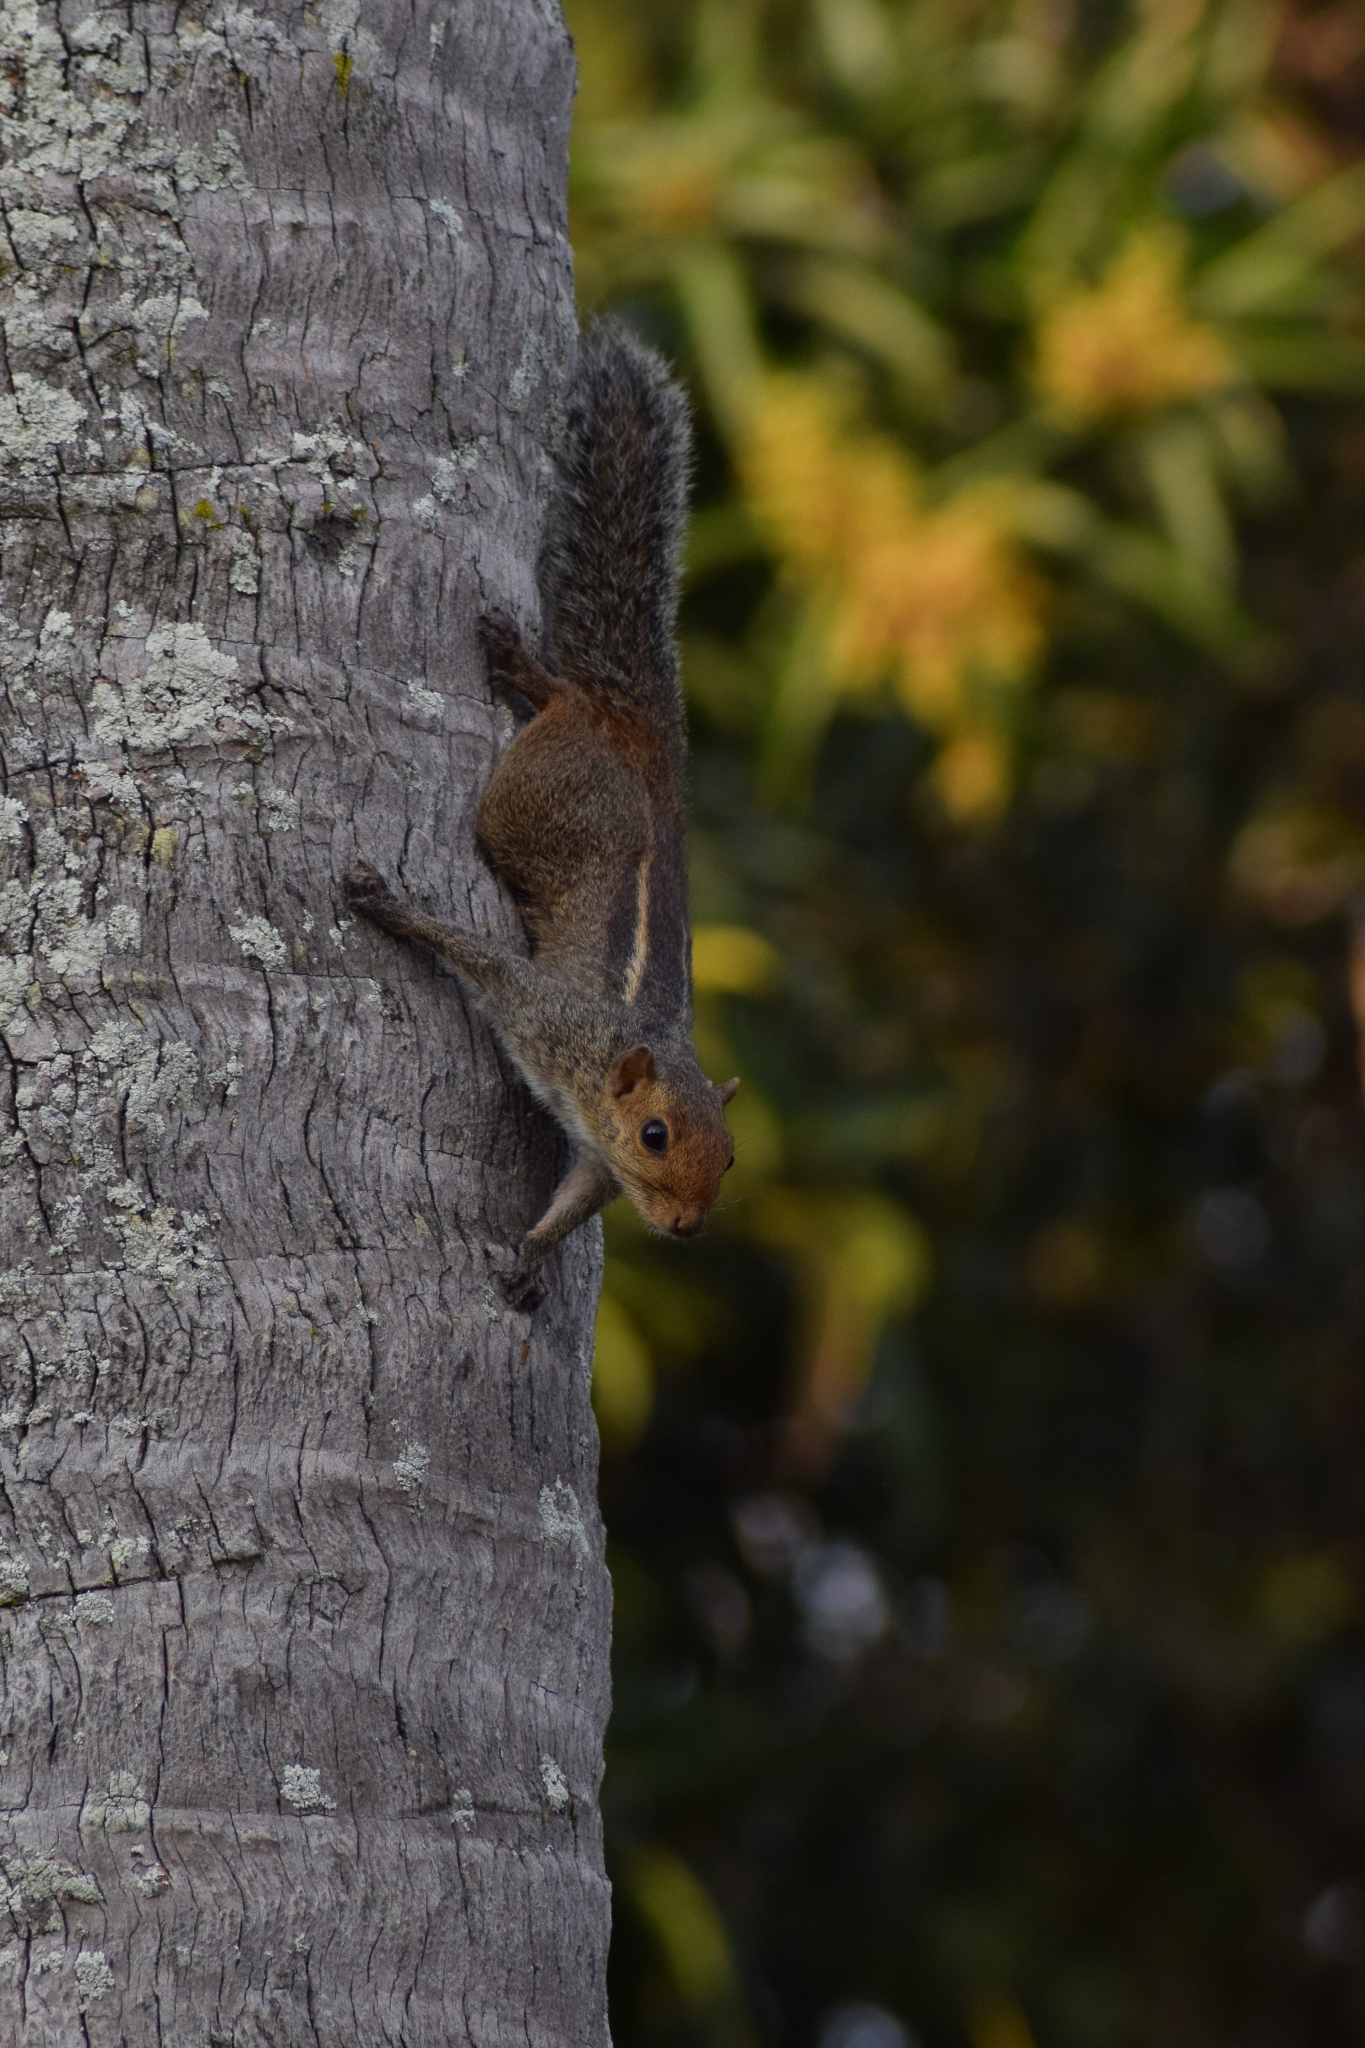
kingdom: Animalia
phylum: Chordata
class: Mammalia
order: Rodentia
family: Sciuridae
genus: Funambulus
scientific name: Funambulus tristriatus
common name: Jungle palm squirrel
